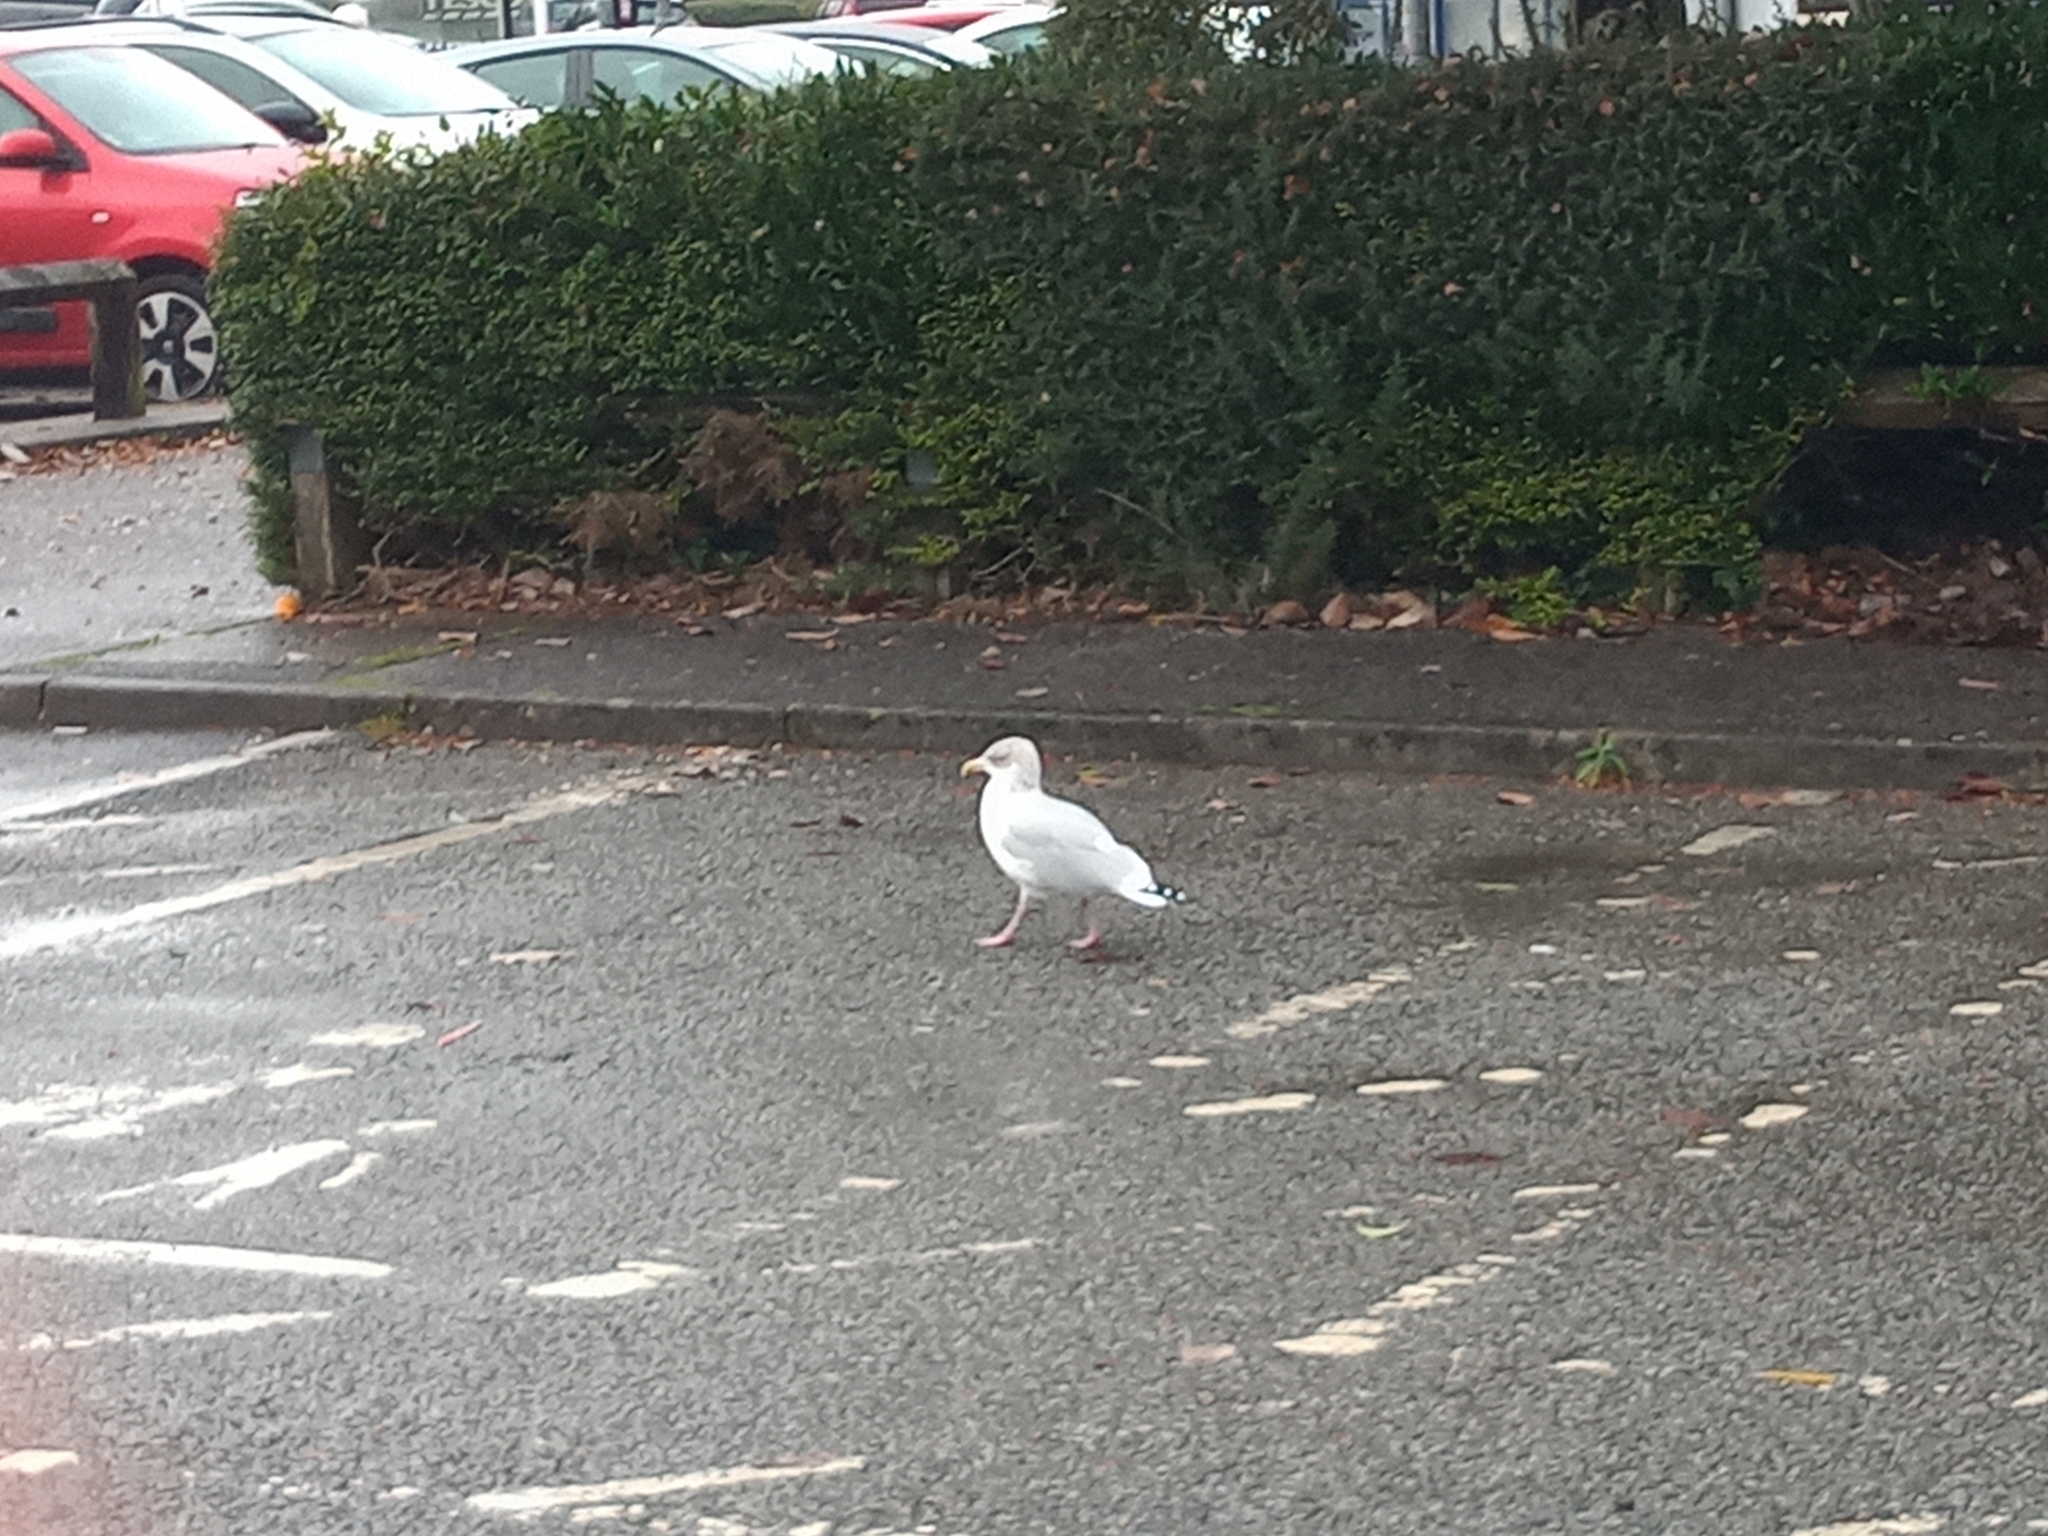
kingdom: Animalia
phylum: Chordata
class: Aves
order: Charadriiformes
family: Laridae
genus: Larus
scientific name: Larus argentatus
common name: Herring gull
